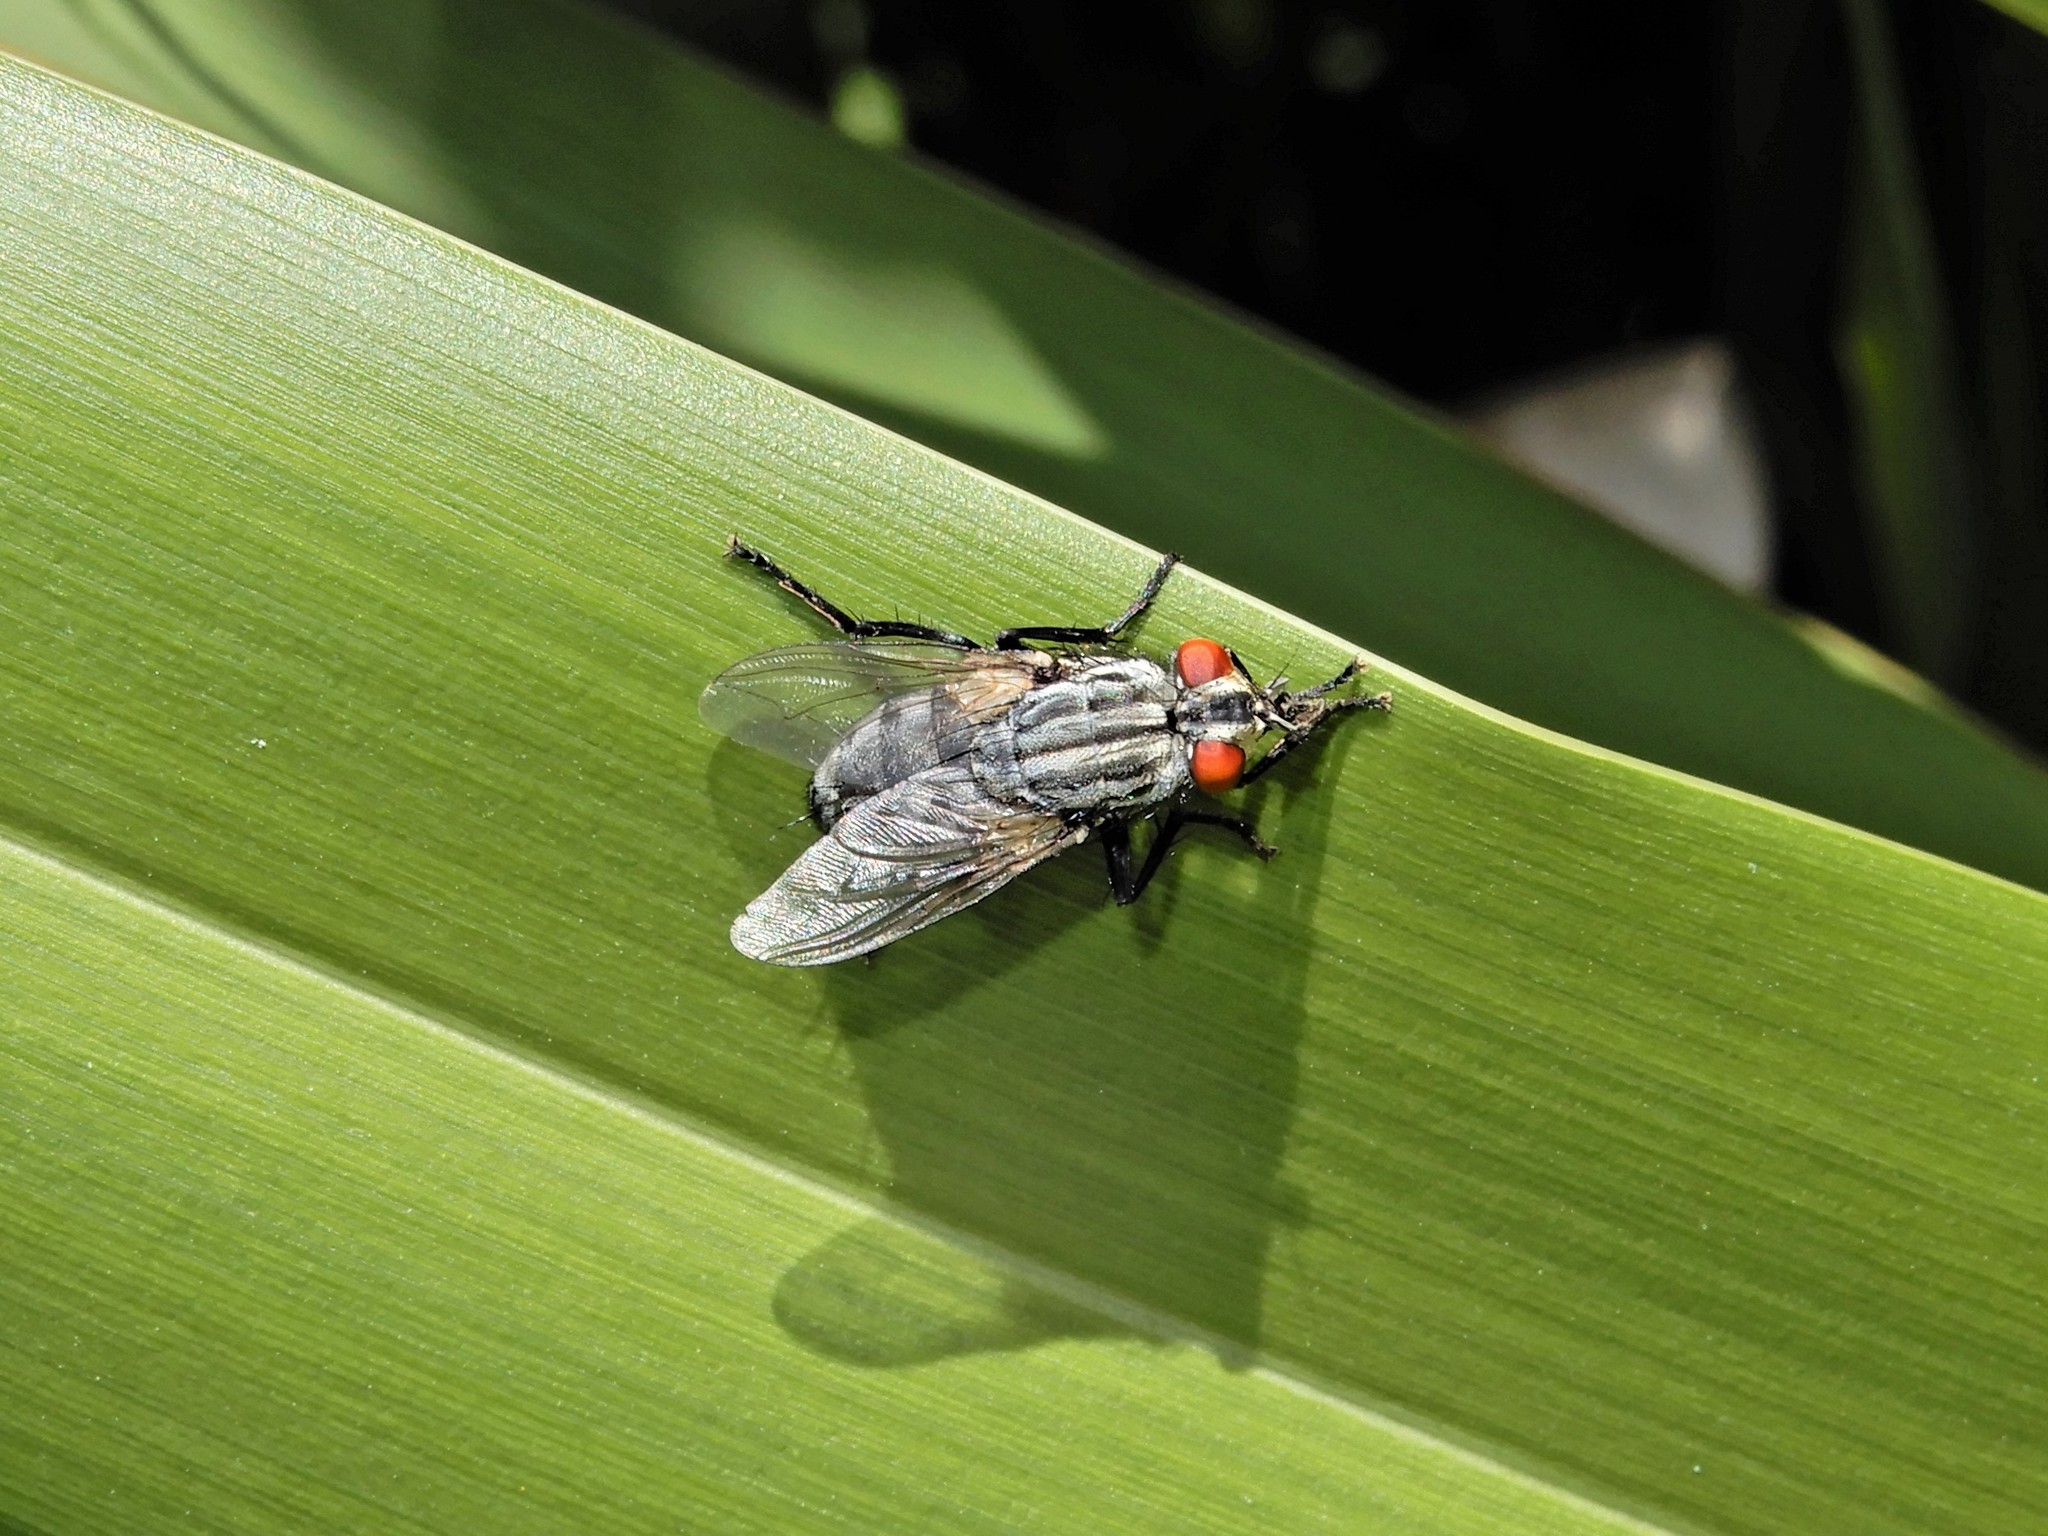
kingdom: Animalia
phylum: Arthropoda
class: Insecta
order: Diptera
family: Sarcophagidae
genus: Sarcophaga
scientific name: Sarcophaga crassipalpis
